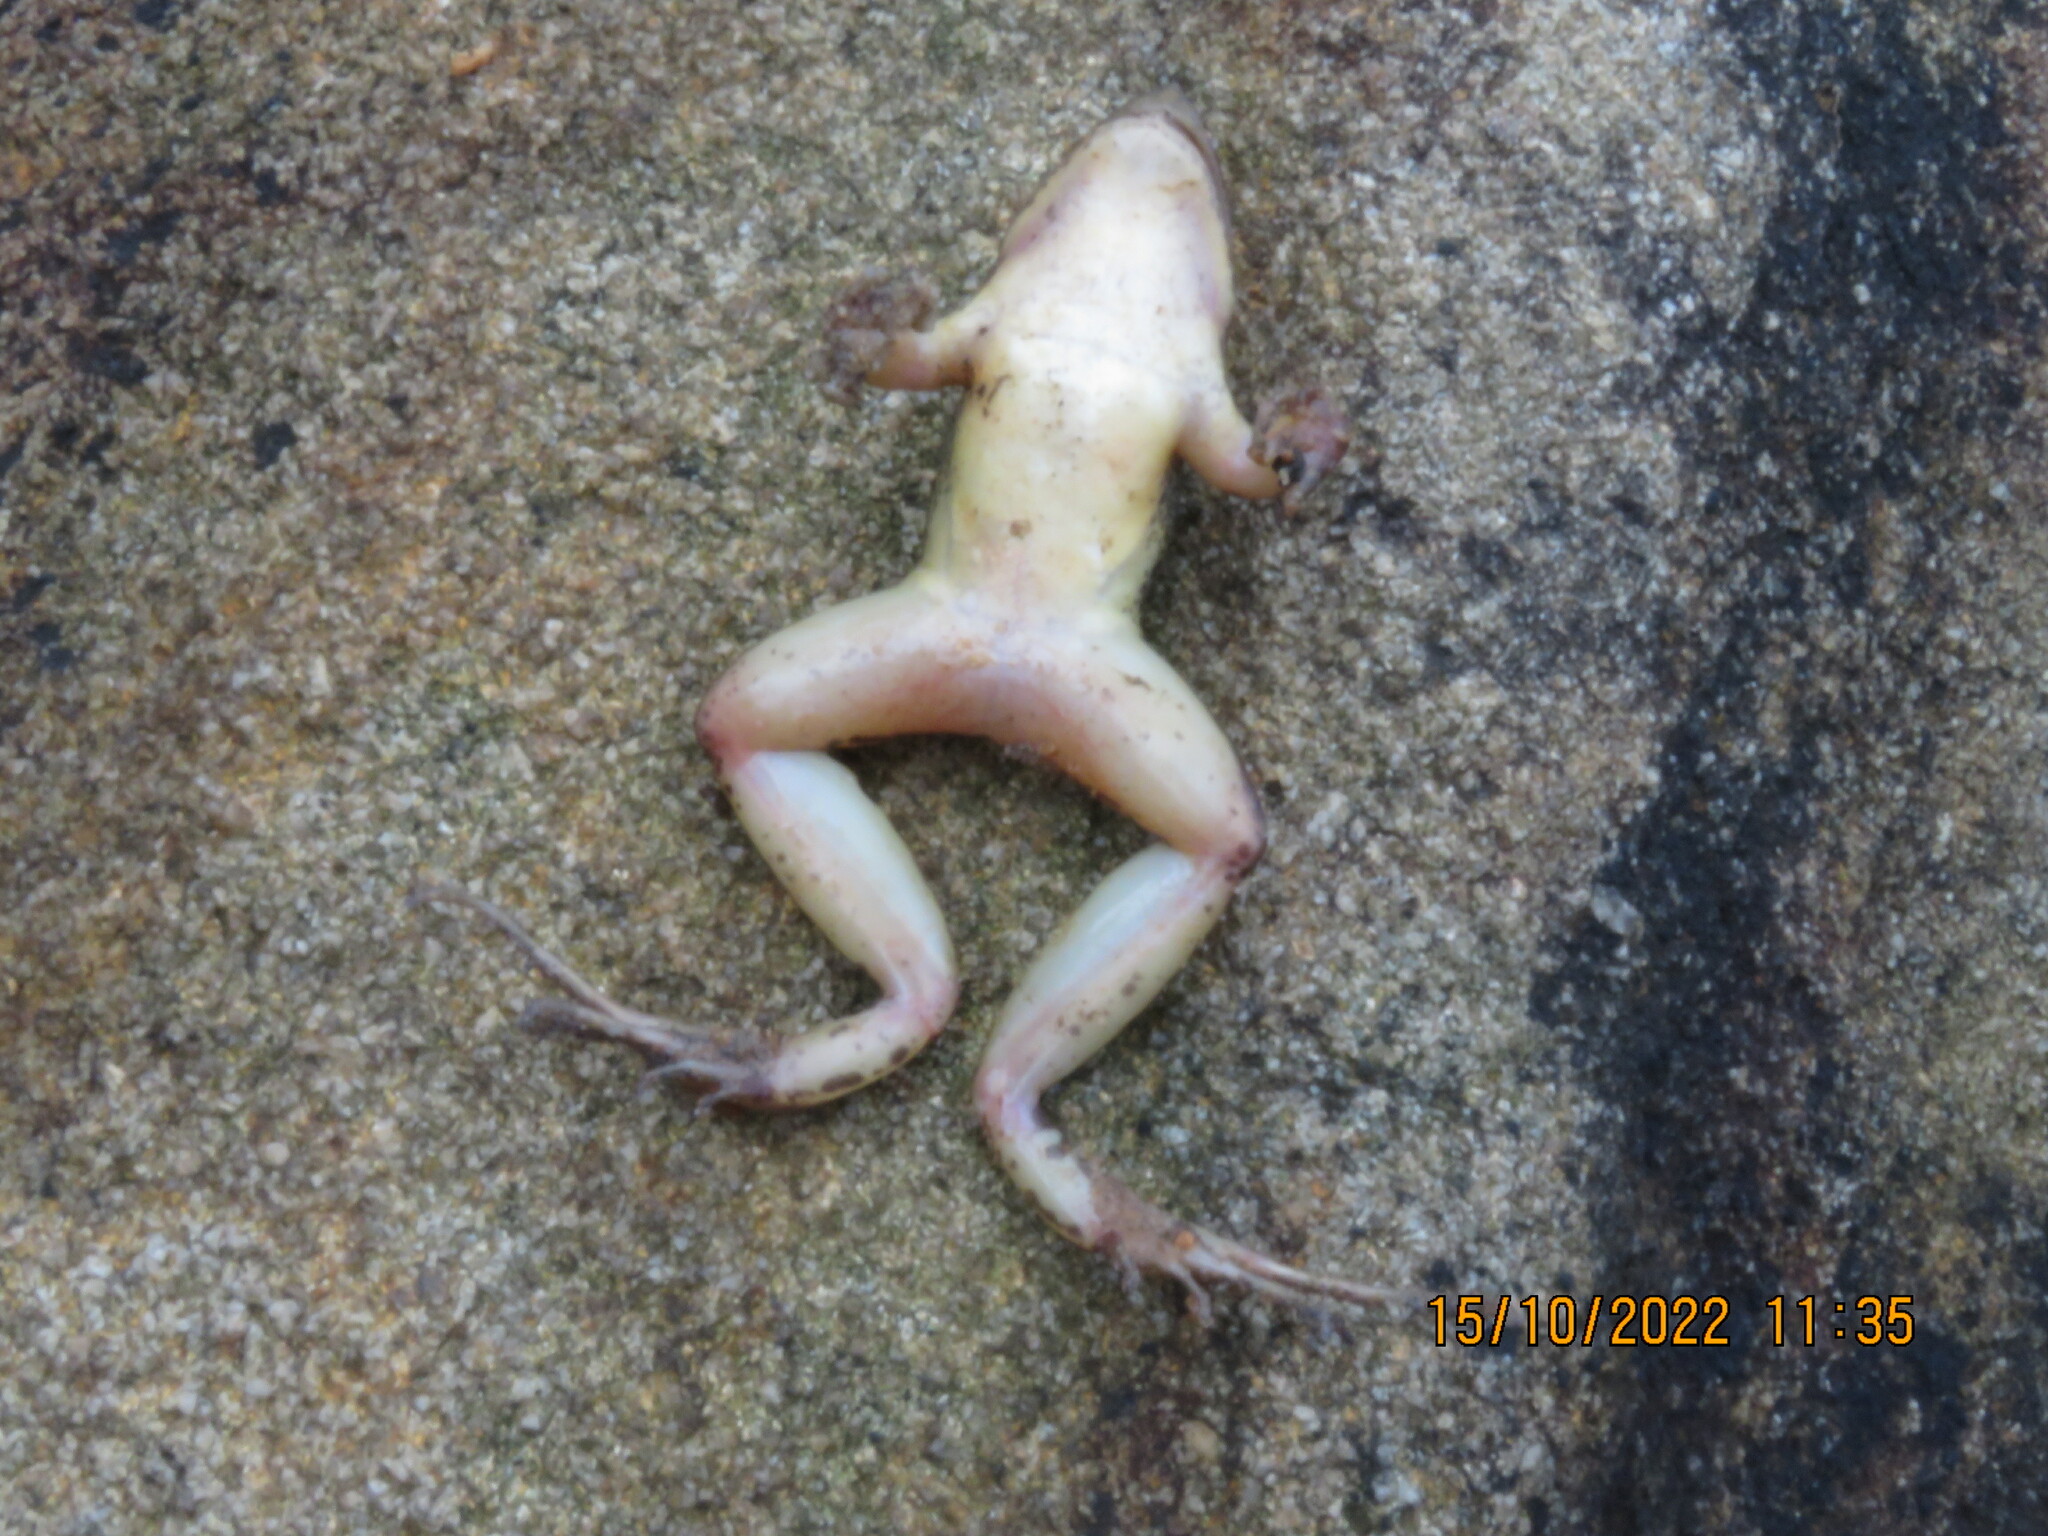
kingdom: Animalia
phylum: Chordata
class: Amphibia
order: Anura
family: Leptodactylidae
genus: Leptodactylus
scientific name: Leptodactylus gracilis
